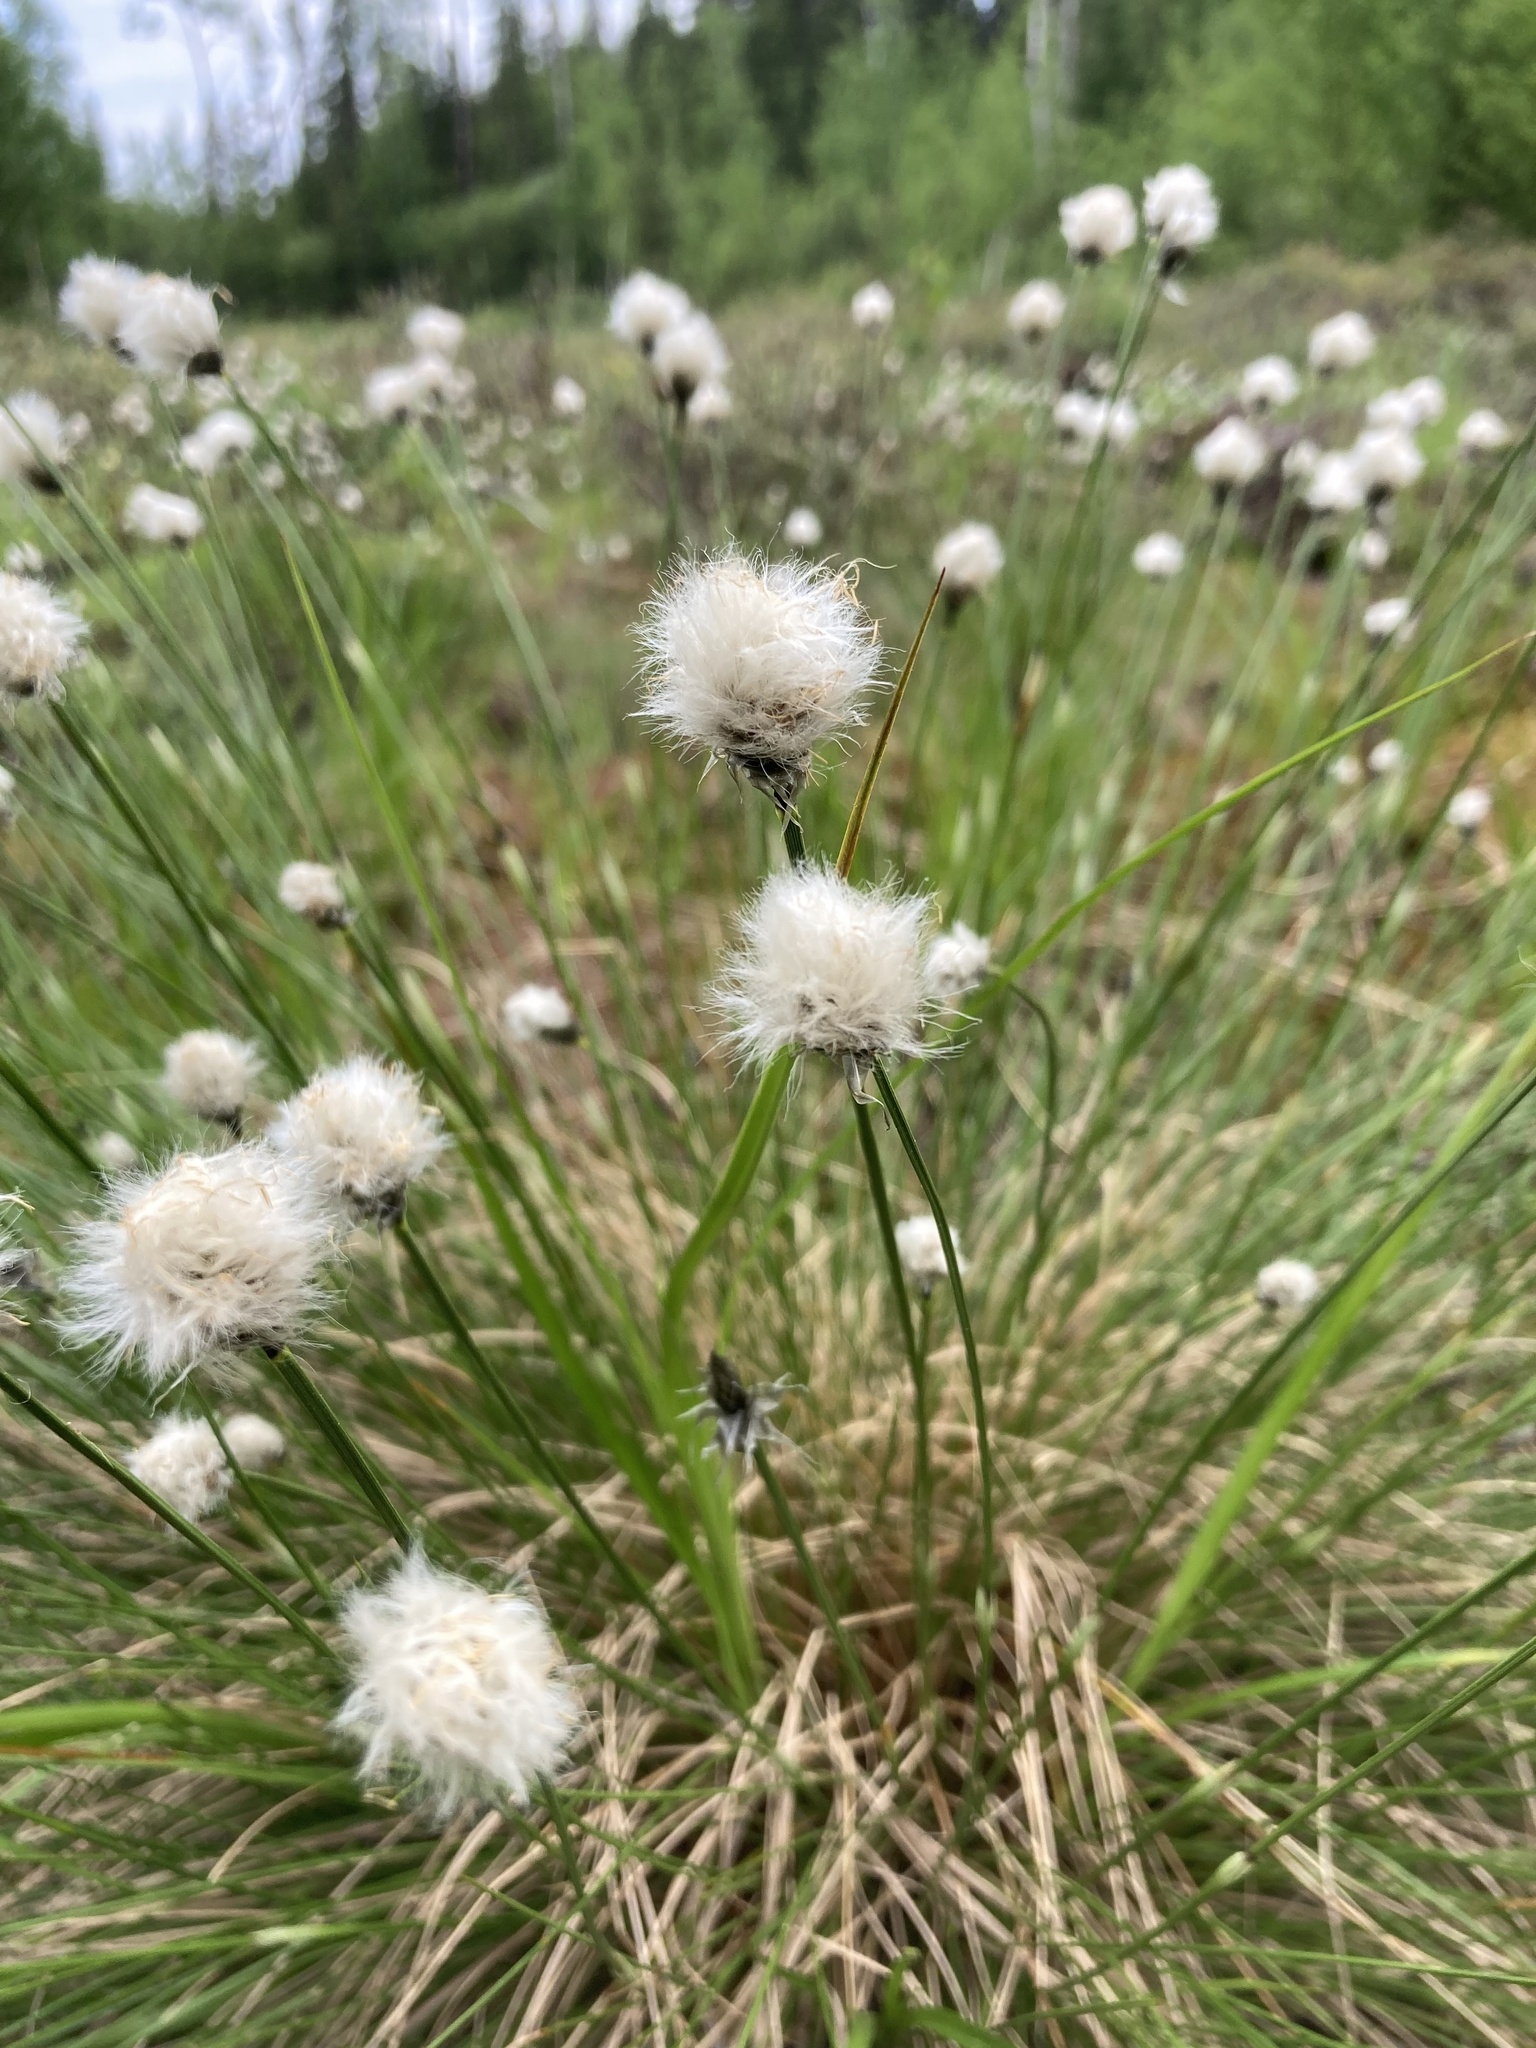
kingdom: Plantae
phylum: Tracheophyta
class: Liliopsida
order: Poales
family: Cyperaceae
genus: Eriophorum
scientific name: Eriophorum vaginatum
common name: Hare's-tail cottongrass
